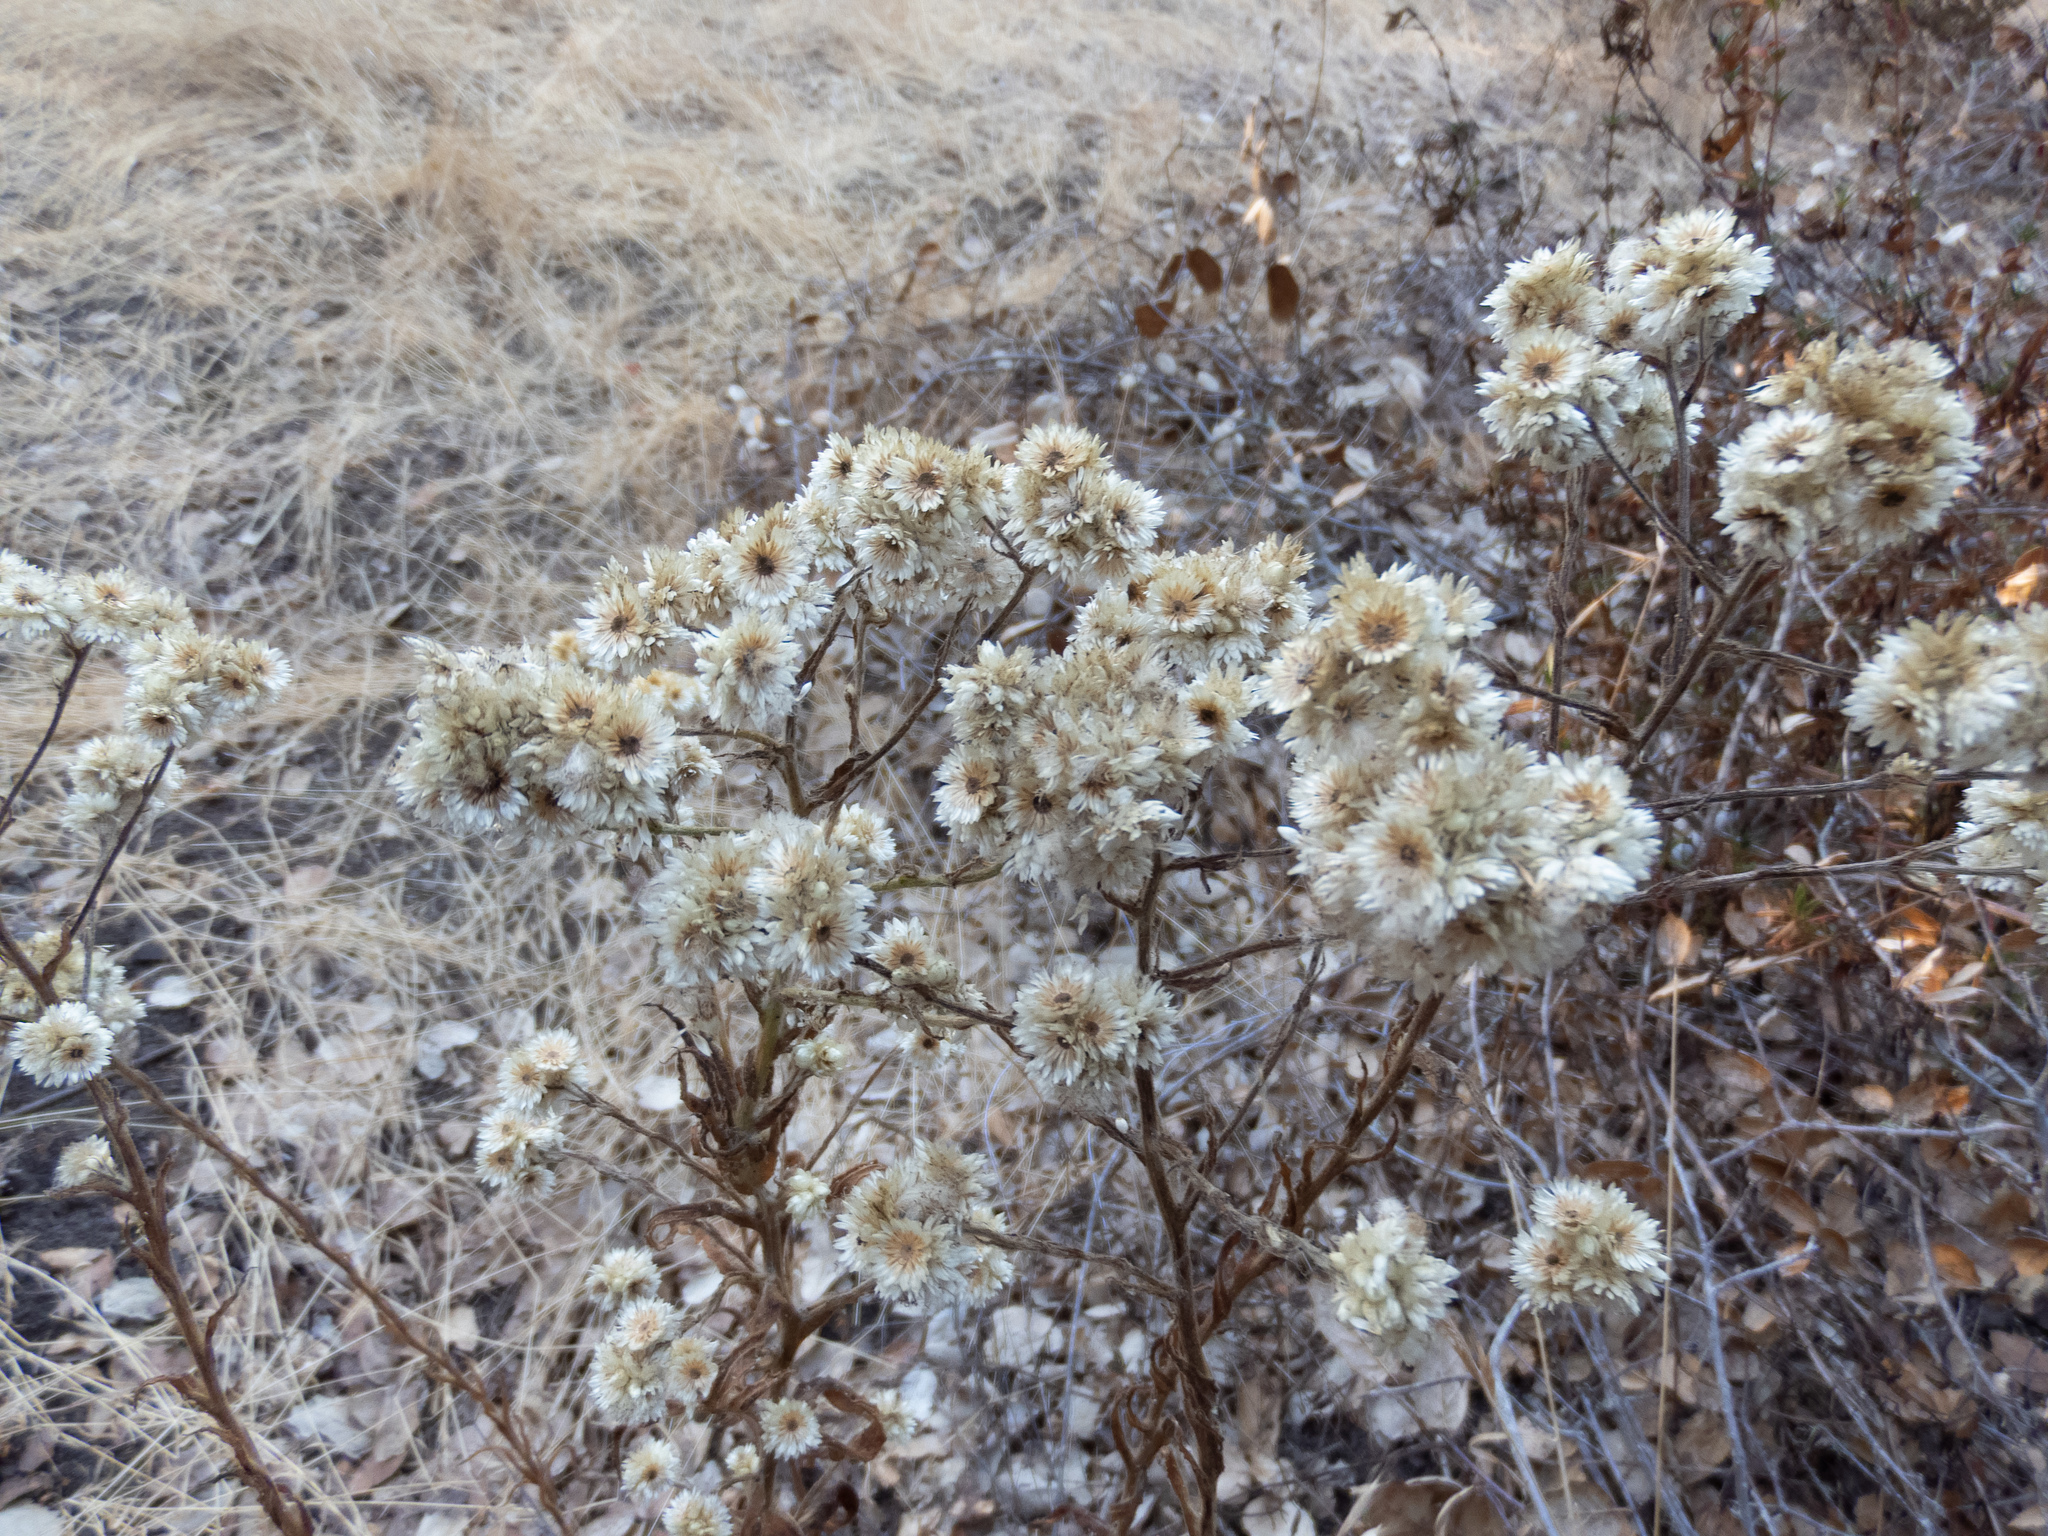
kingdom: Plantae
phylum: Tracheophyta
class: Magnoliopsida
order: Asterales
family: Asteraceae
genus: Pseudognaphalium
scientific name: Pseudognaphalium californicum
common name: California rabbit-tobacco
